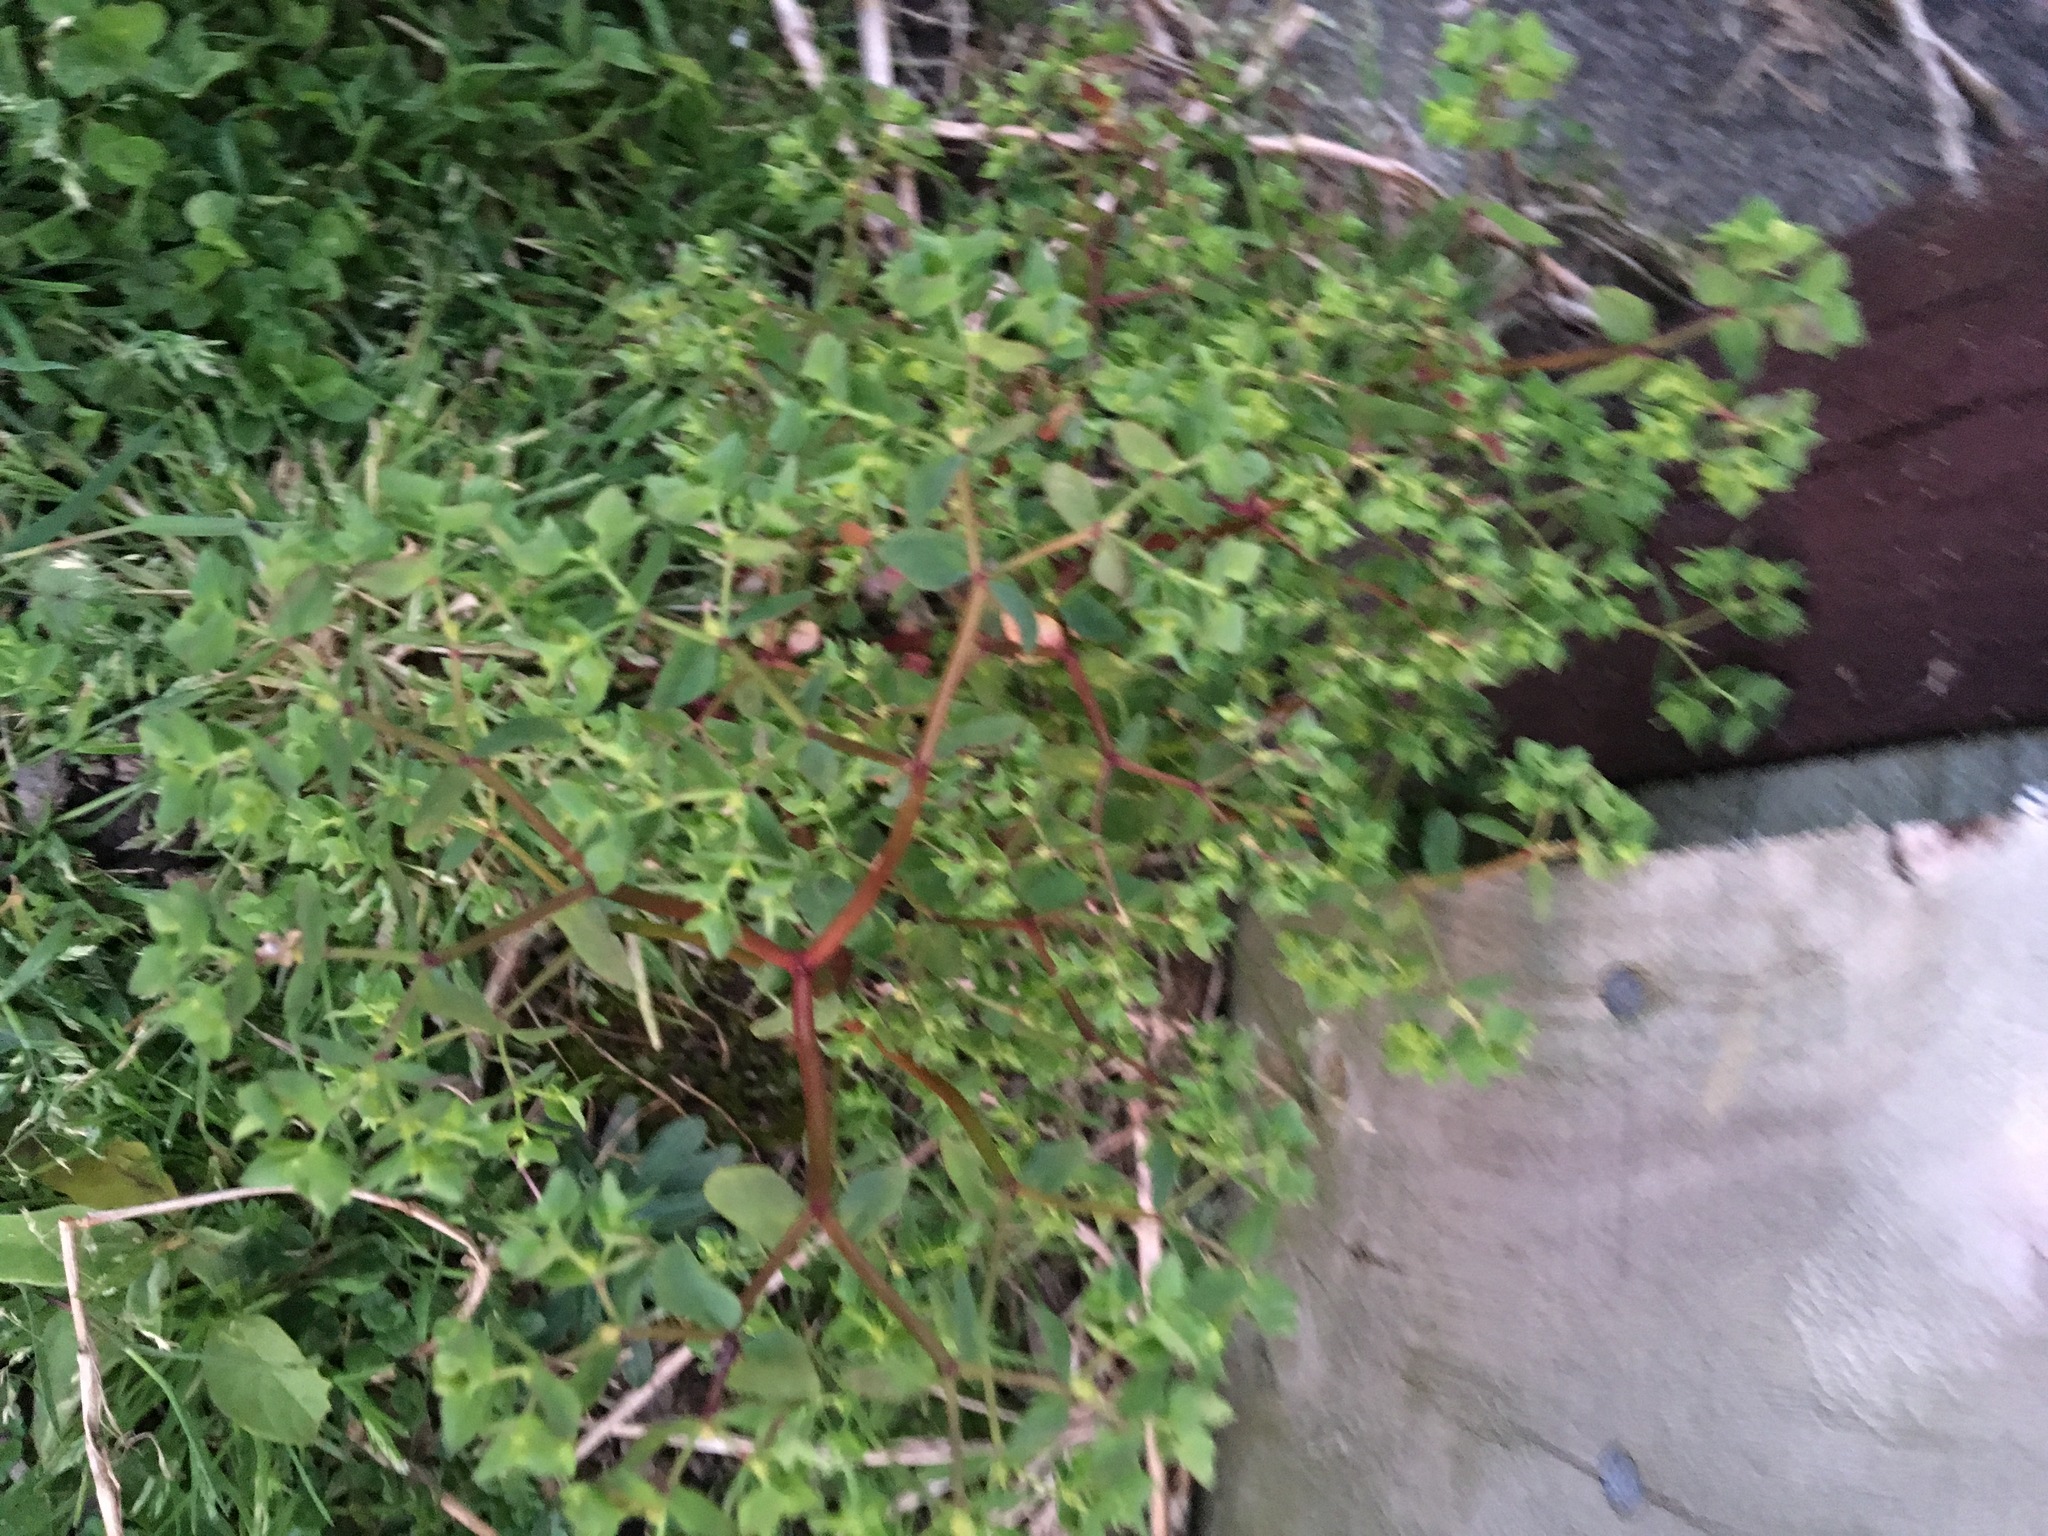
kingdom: Plantae
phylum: Tracheophyta
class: Magnoliopsida
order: Malpighiales
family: Euphorbiaceae
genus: Euphorbia
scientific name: Euphorbia peplus
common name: Petty spurge
